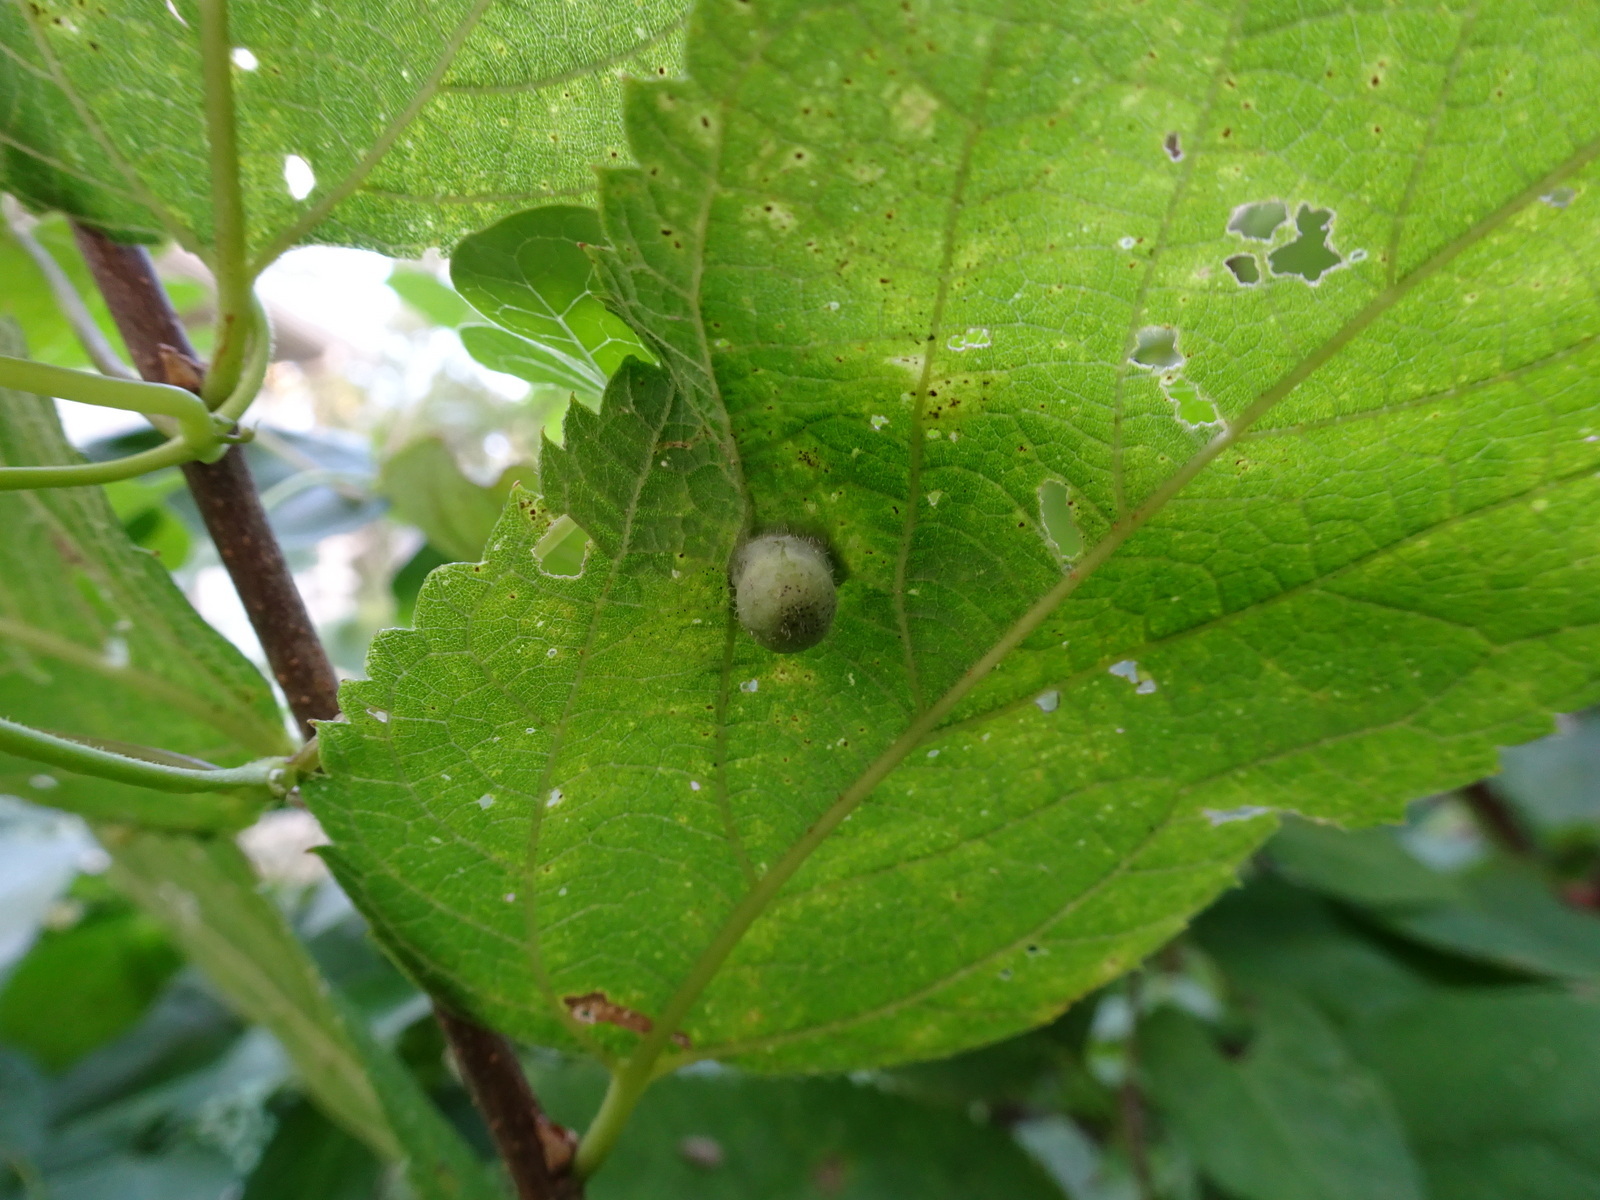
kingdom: Animalia
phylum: Arthropoda
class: Insecta
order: Hemiptera
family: Aphalaridae
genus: Pachypsylla
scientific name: Pachypsylla celtidismamma
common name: Hackberry nipplegall psyllid
